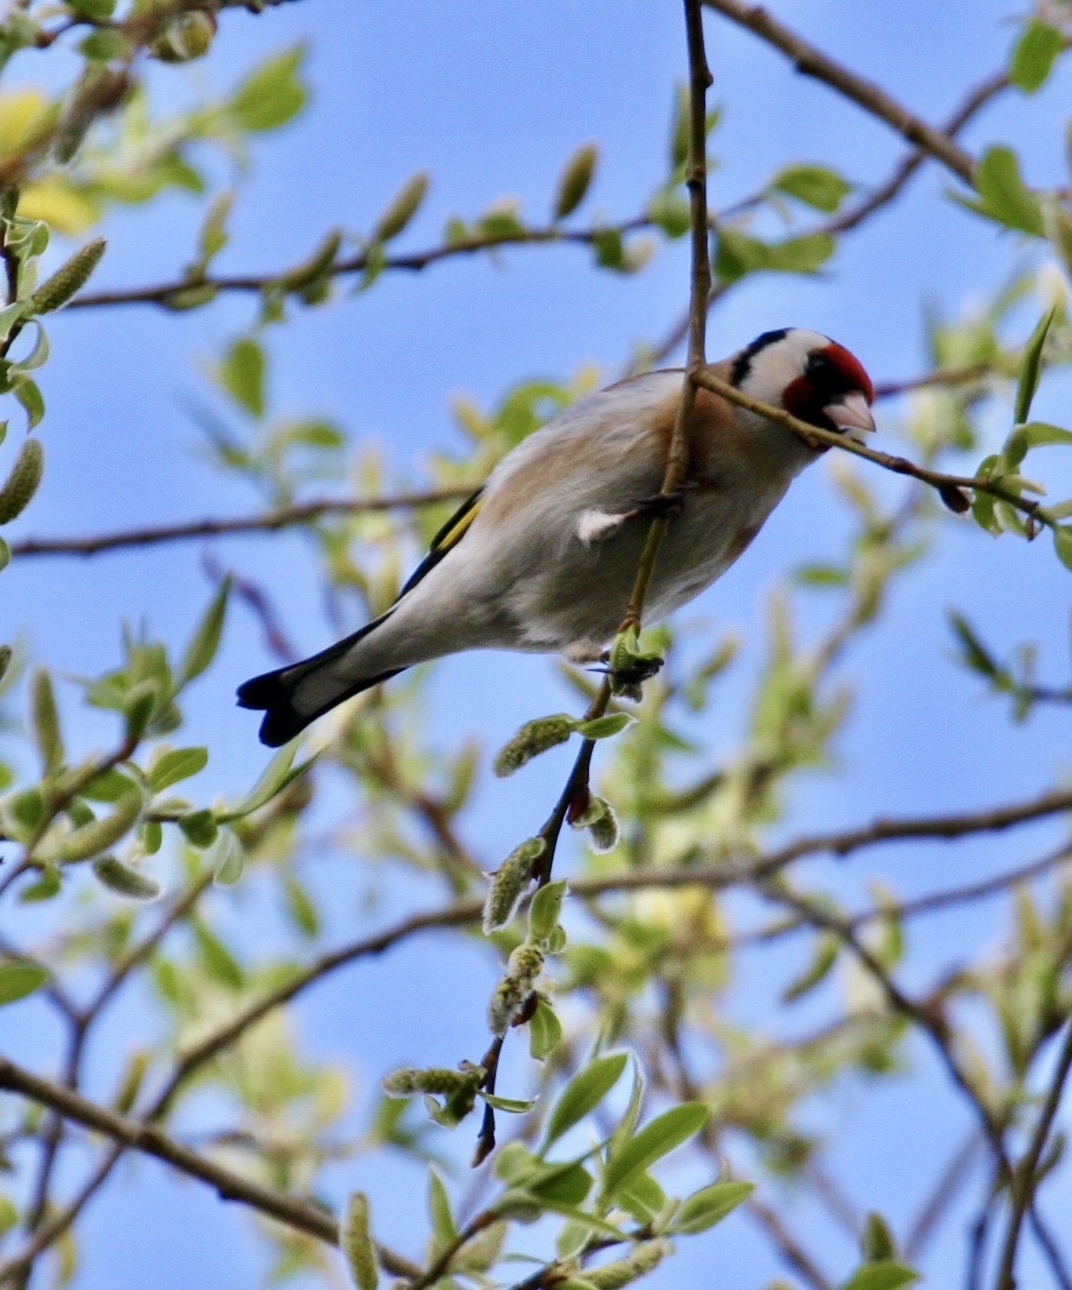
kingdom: Animalia
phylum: Chordata
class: Aves
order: Passeriformes
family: Fringillidae
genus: Carduelis
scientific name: Carduelis carduelis
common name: European goldfinch
